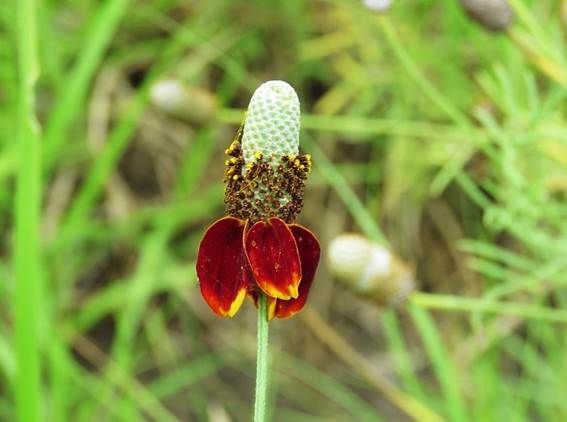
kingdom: Plantae
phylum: Tracheophyta
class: Magnoliopsida
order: Asterales
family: Asteraceae
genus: Ratibida
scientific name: Ratibida columnifera
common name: Prairie coneflower
